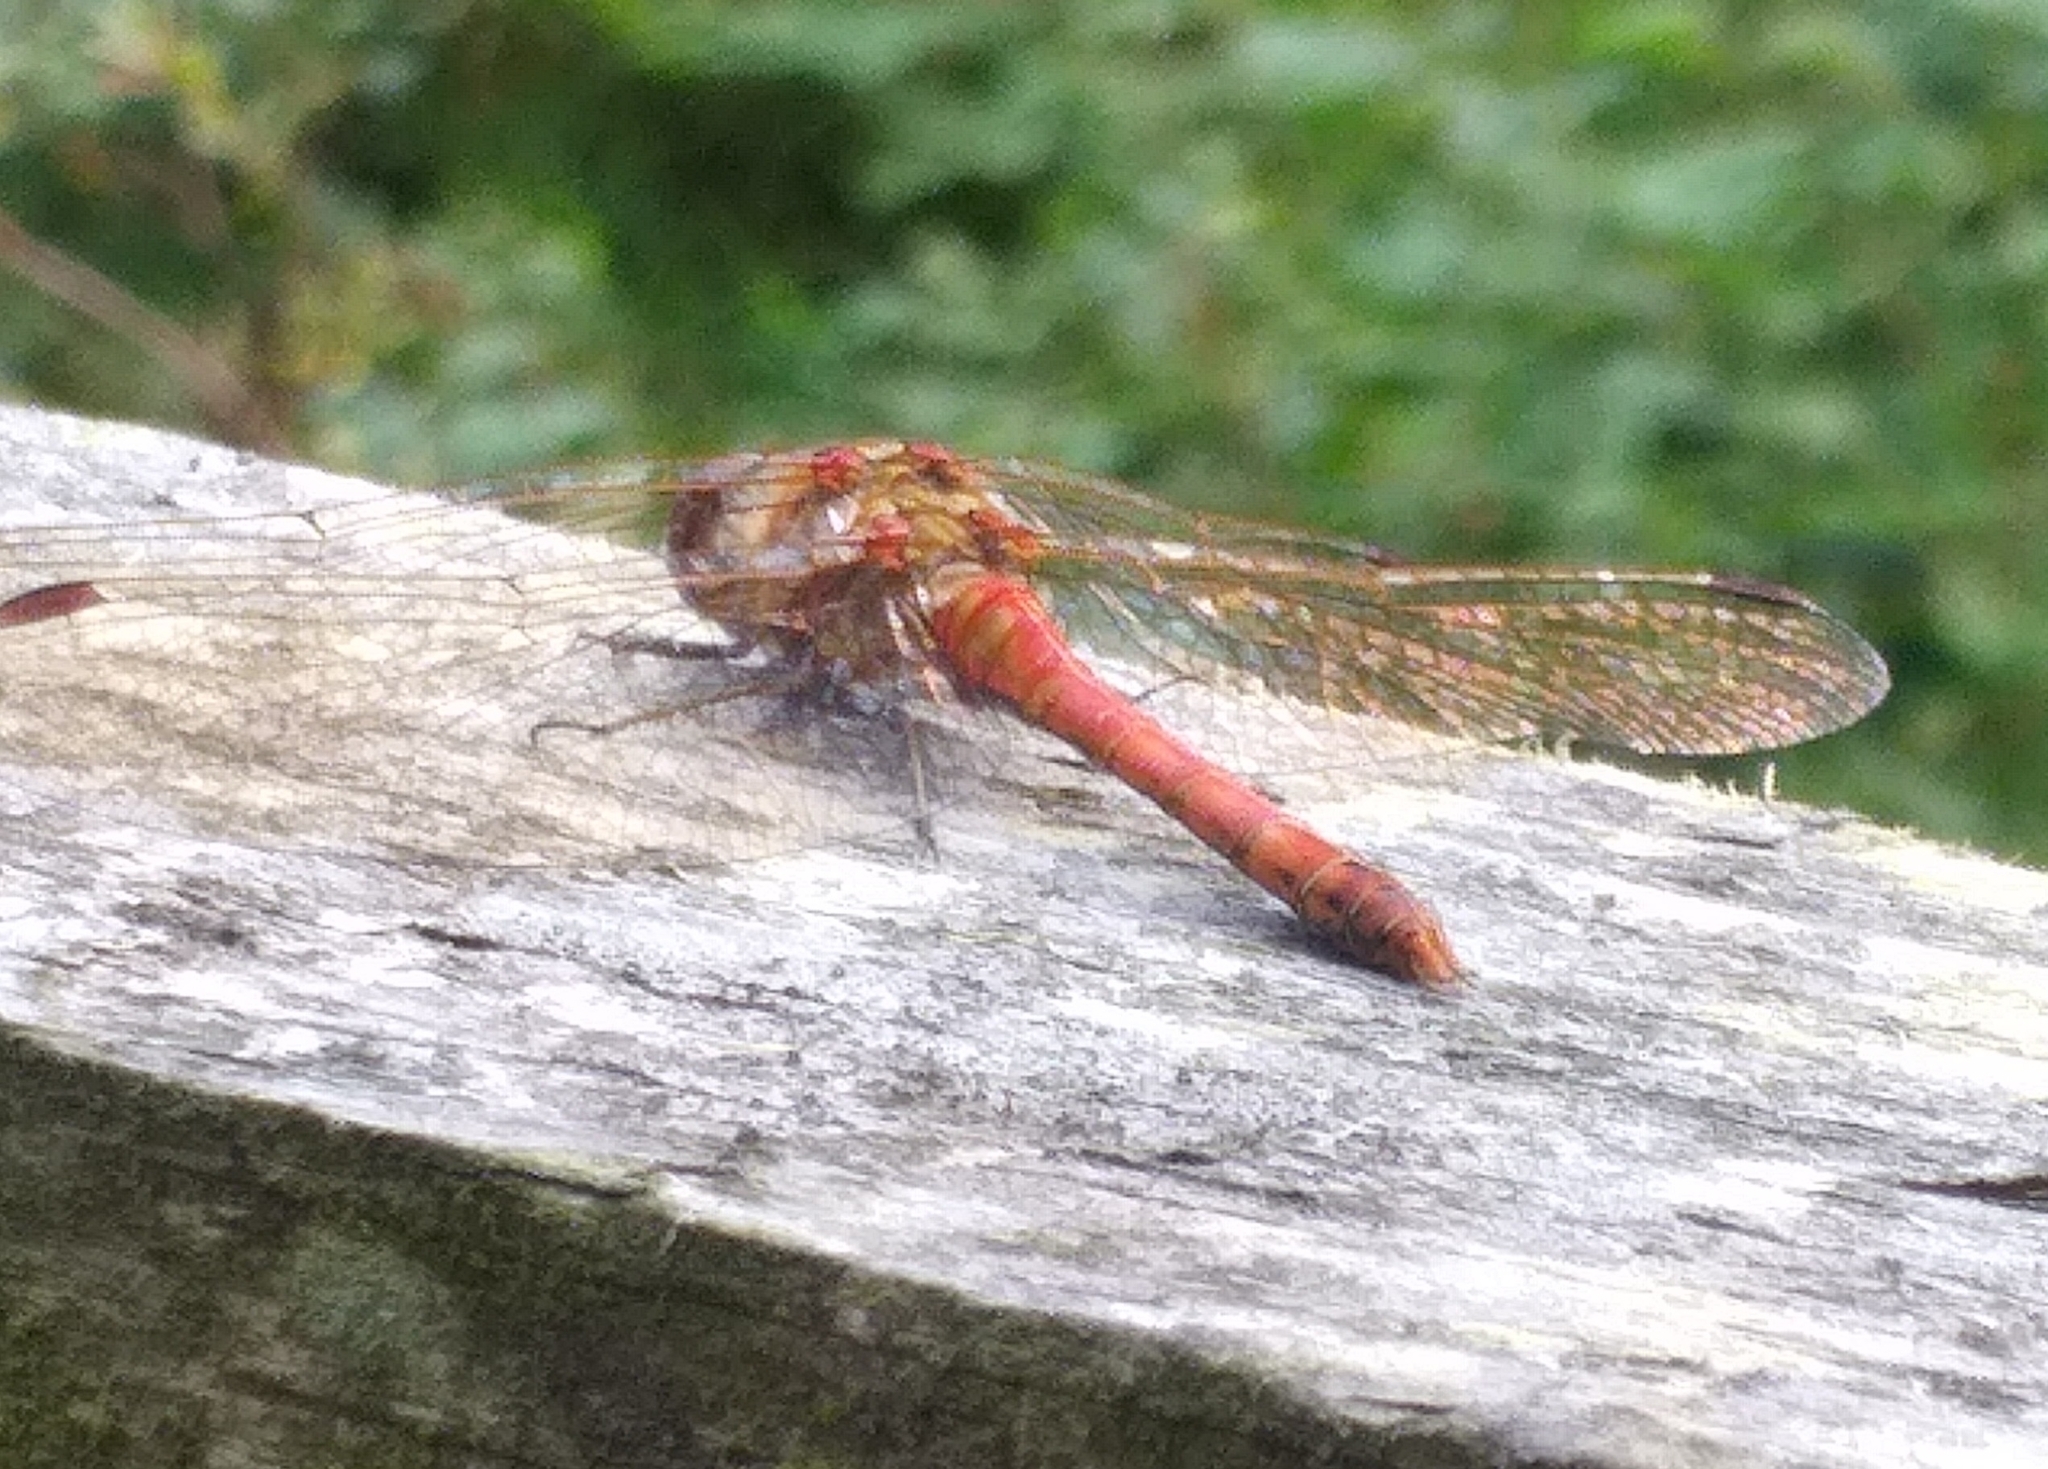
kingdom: Animalia
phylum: Arthropoda
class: Insecta
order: Odonata
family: Libellulidae
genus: Sympetrum
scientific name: Sympetrum striolatum
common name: Common darter
